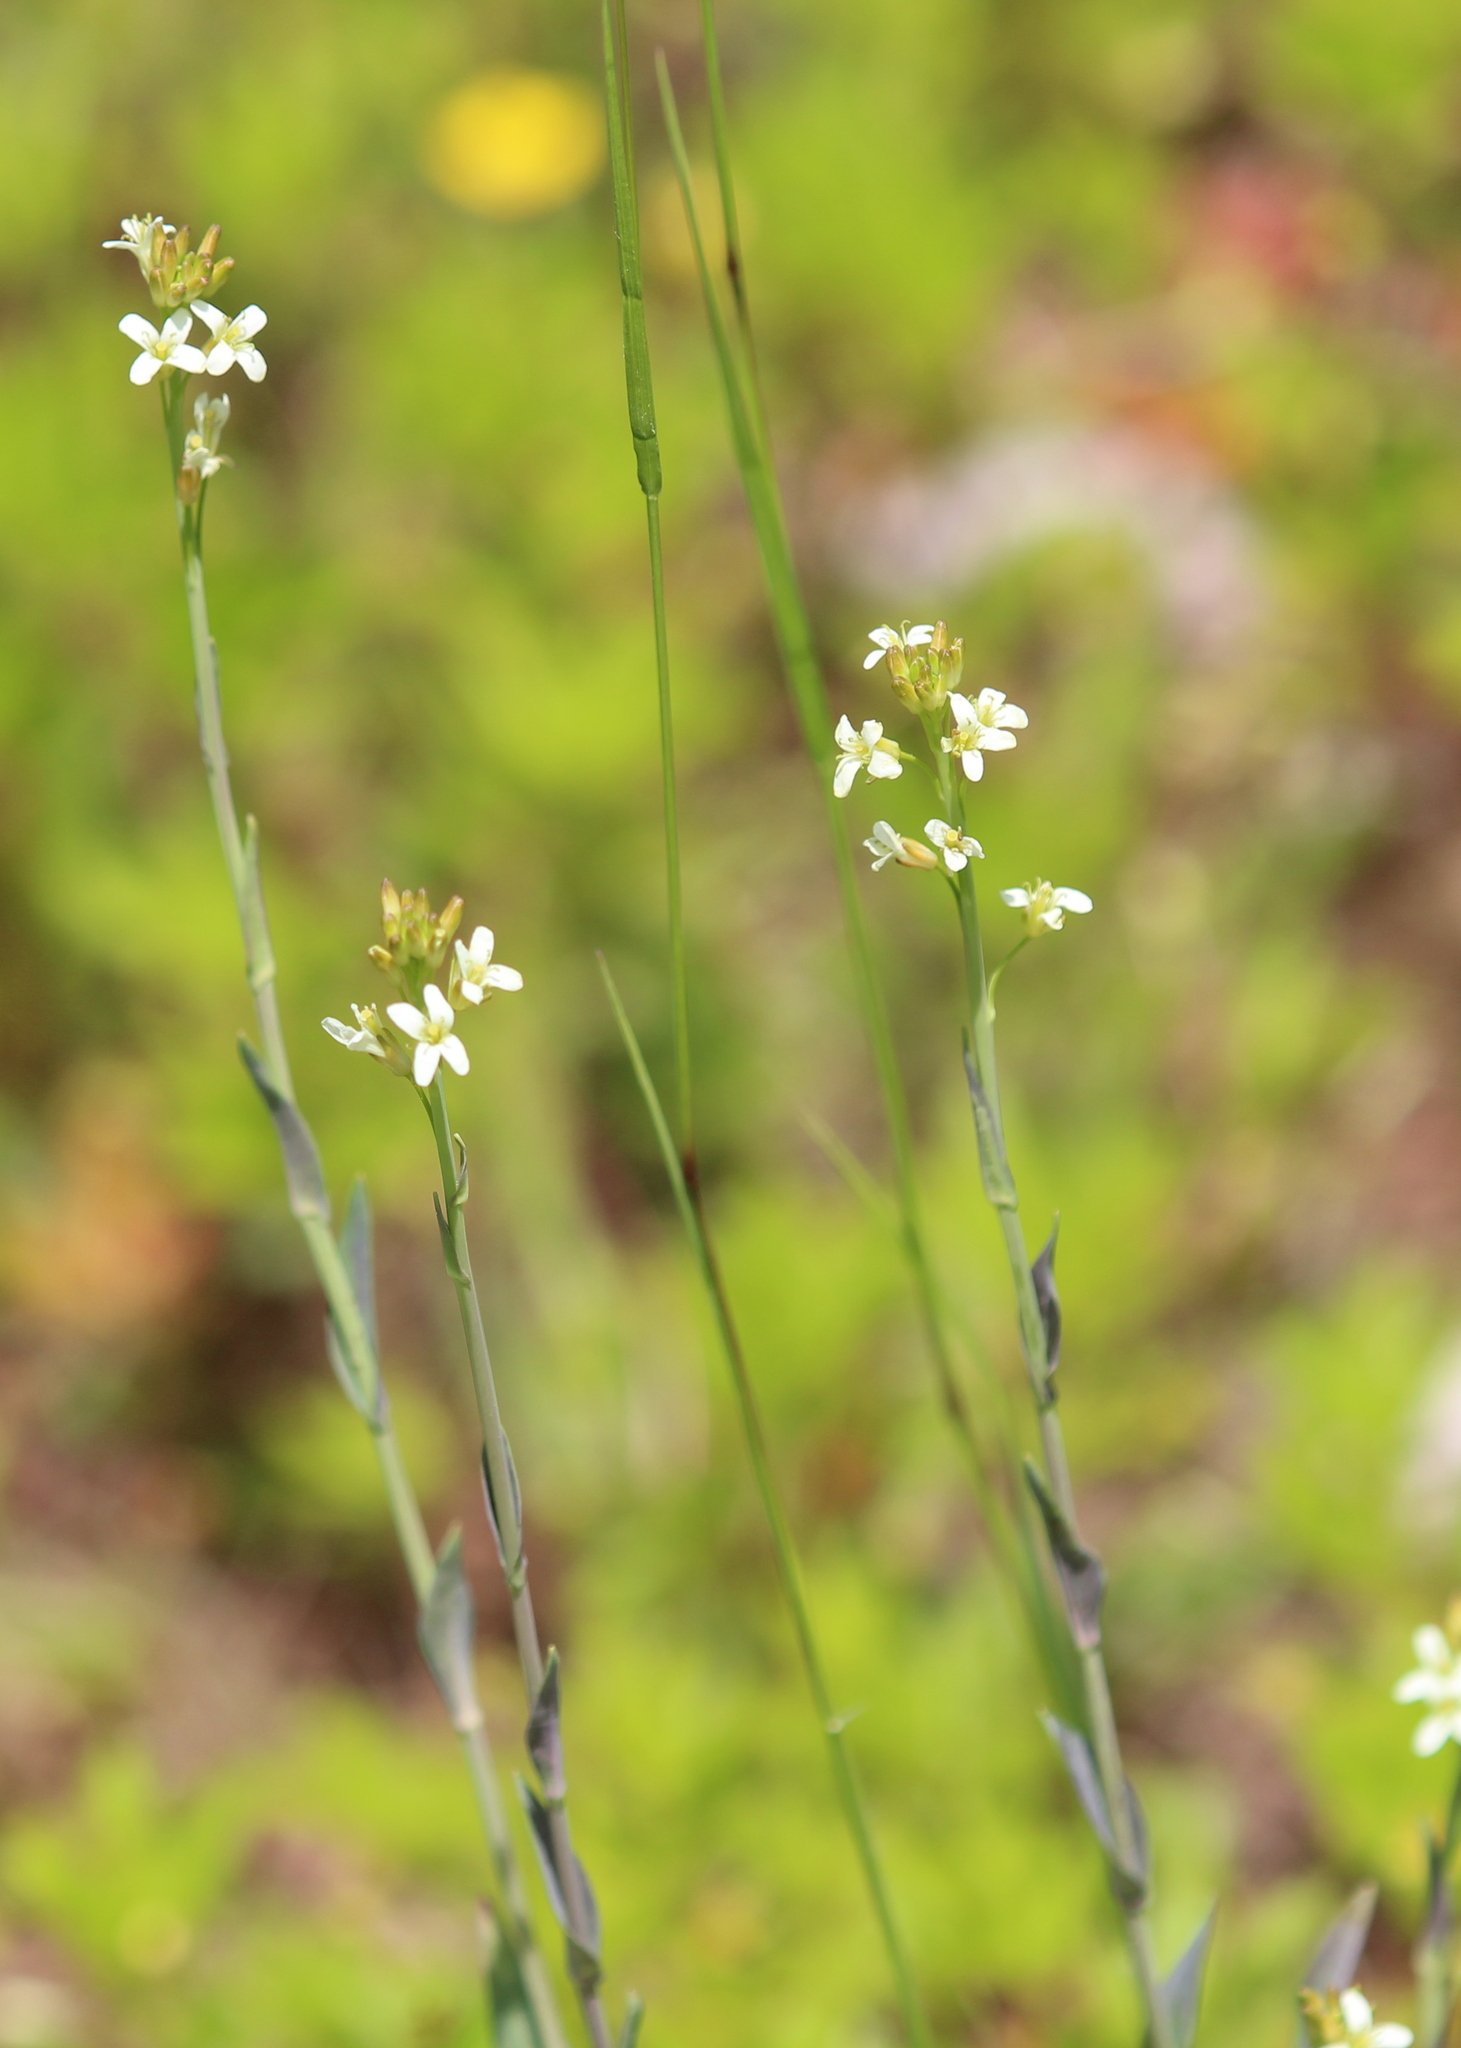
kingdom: Plantae
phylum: Tracheophyta
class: Magnoliopsida
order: Brassicales
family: Brassicaceae
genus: Turritis
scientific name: Turritis glabra
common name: Tower rockcress
